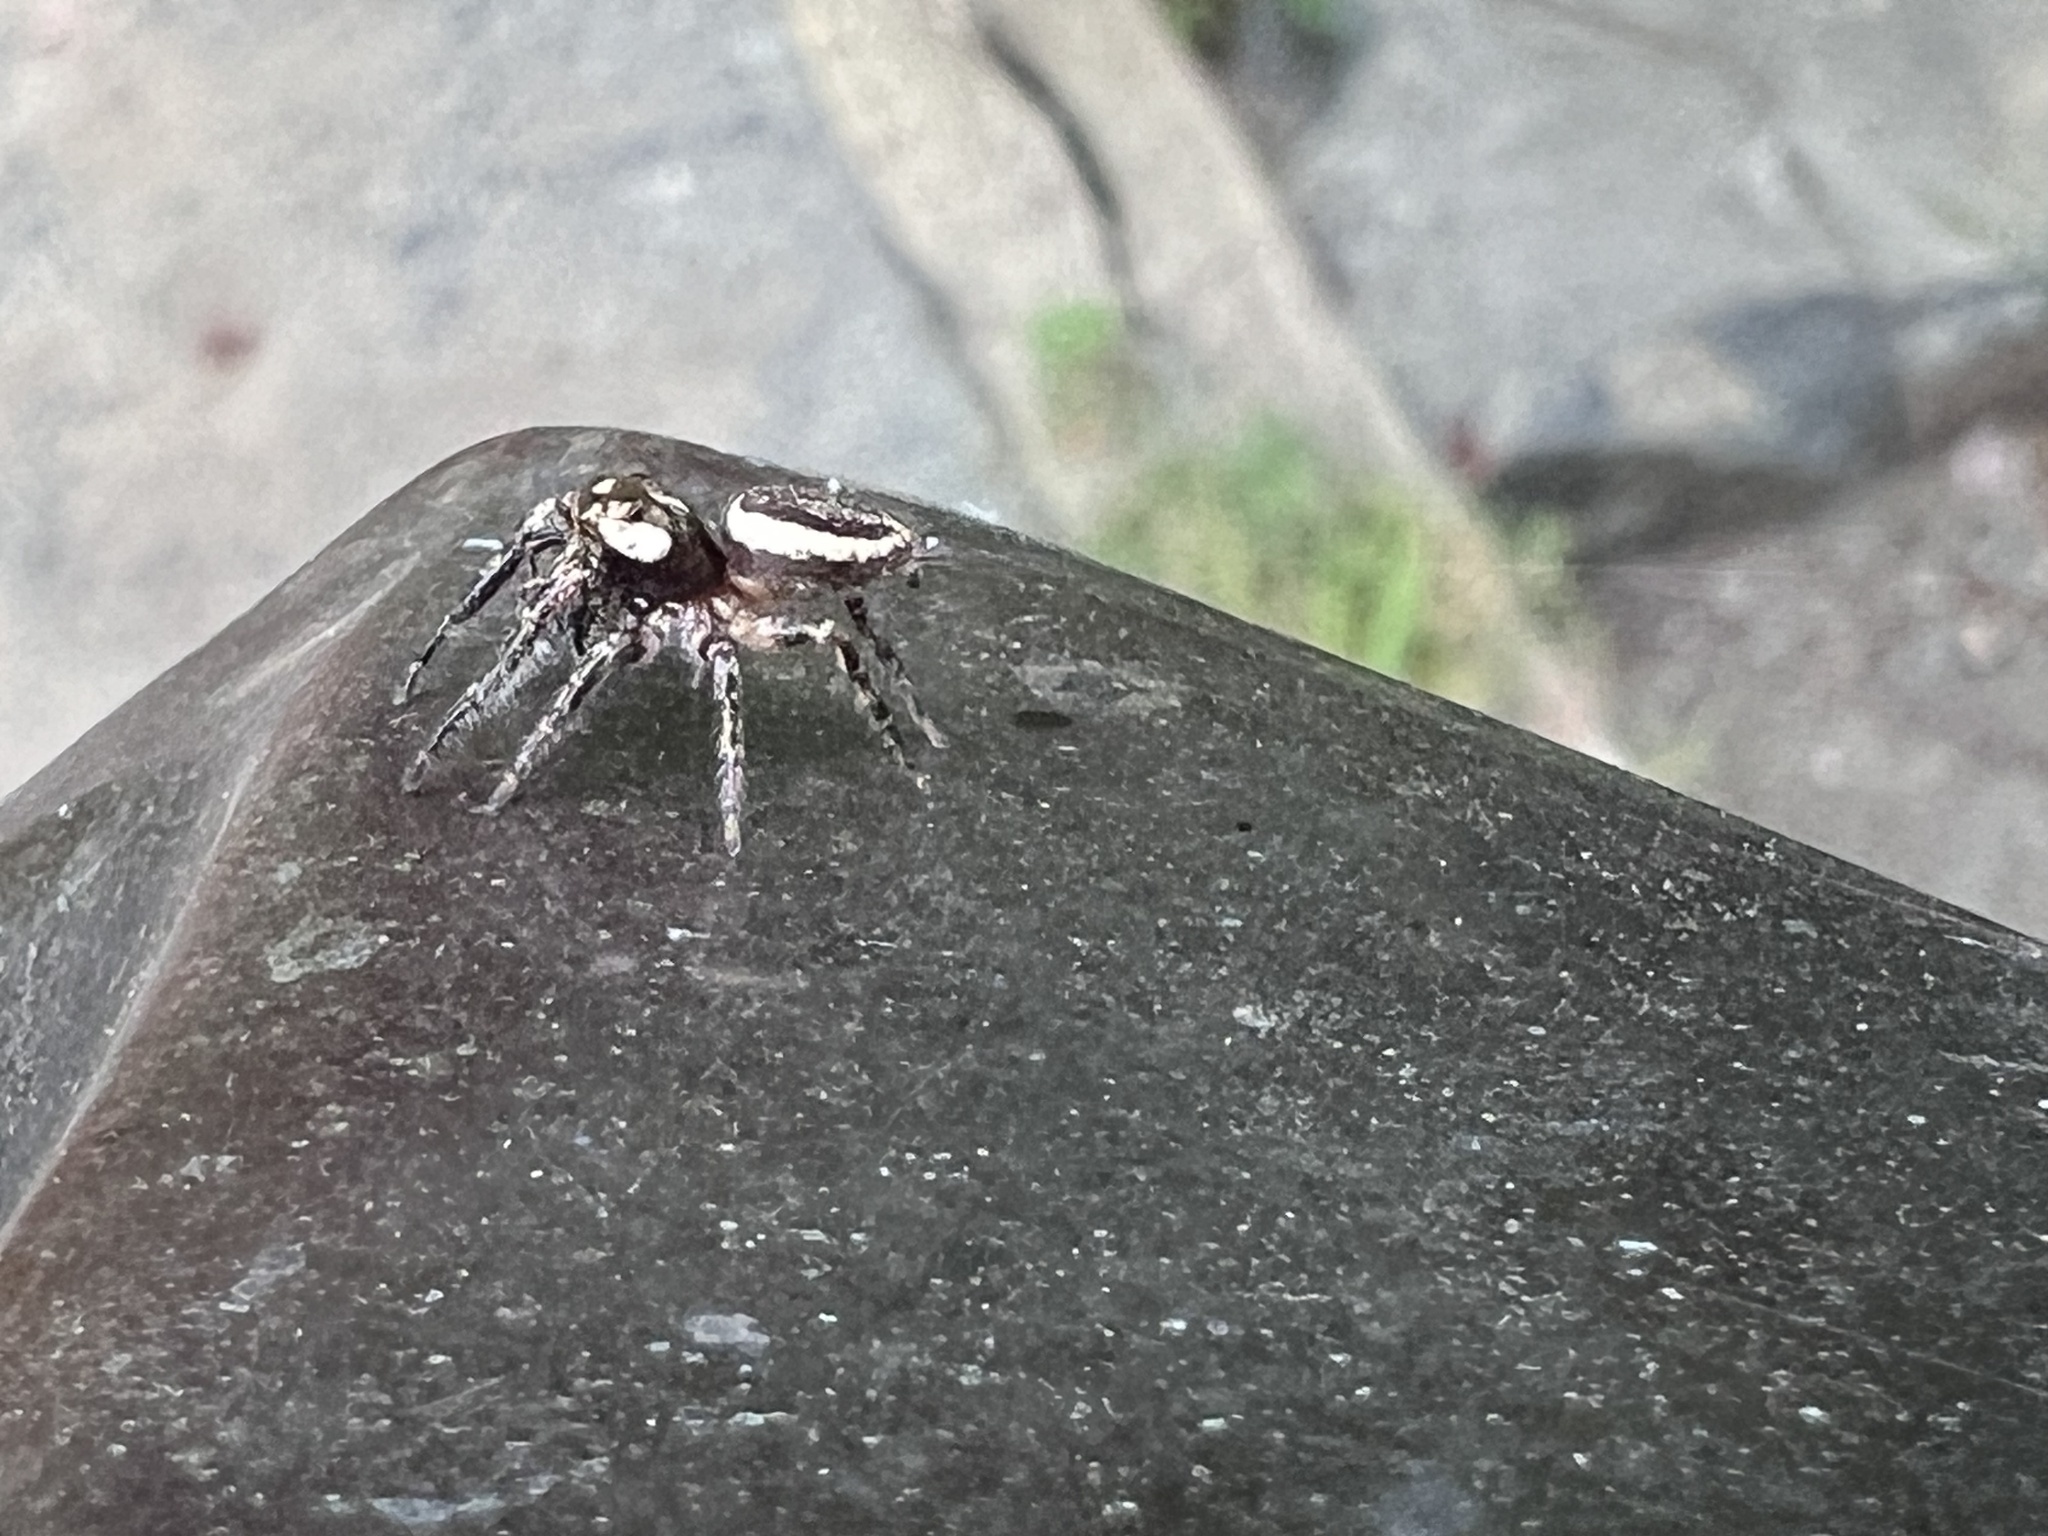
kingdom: Animalia
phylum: Arthropoda
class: Arachnida
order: Araneae
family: Salticidae
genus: Eris
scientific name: Eris militaris
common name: Bronze jumper
